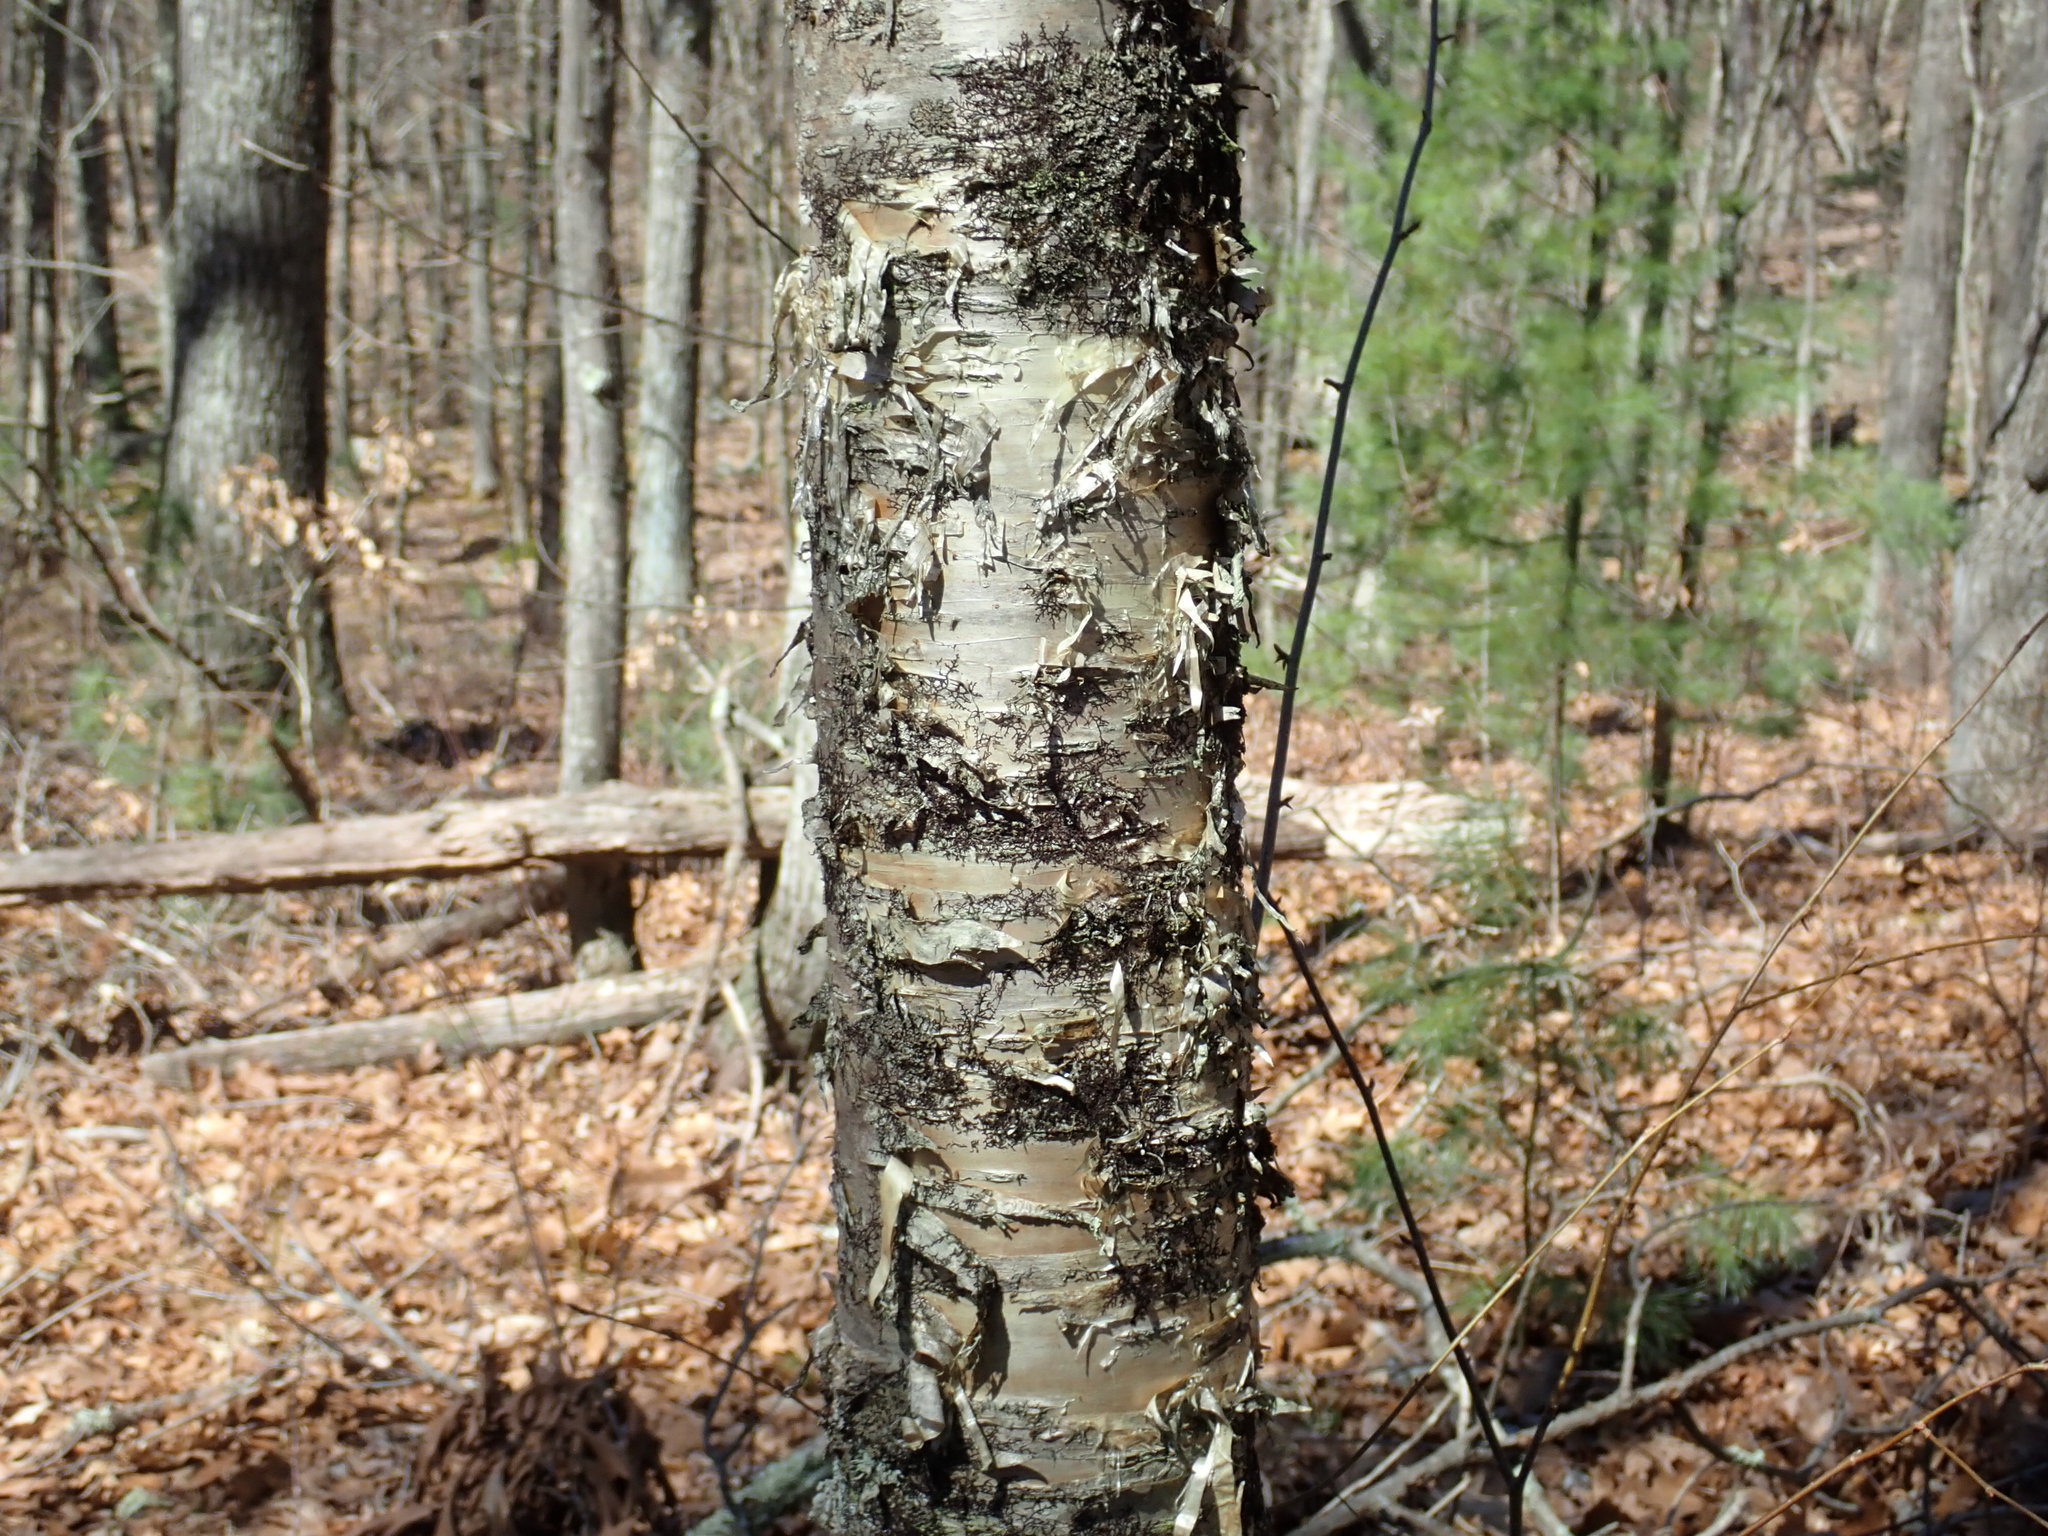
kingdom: Plantae
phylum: Tracheophyta
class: Magnoliopsida
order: Fagales
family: Betulaceae
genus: Betula
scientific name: Betula alleghaniensis
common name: Yellow birch
